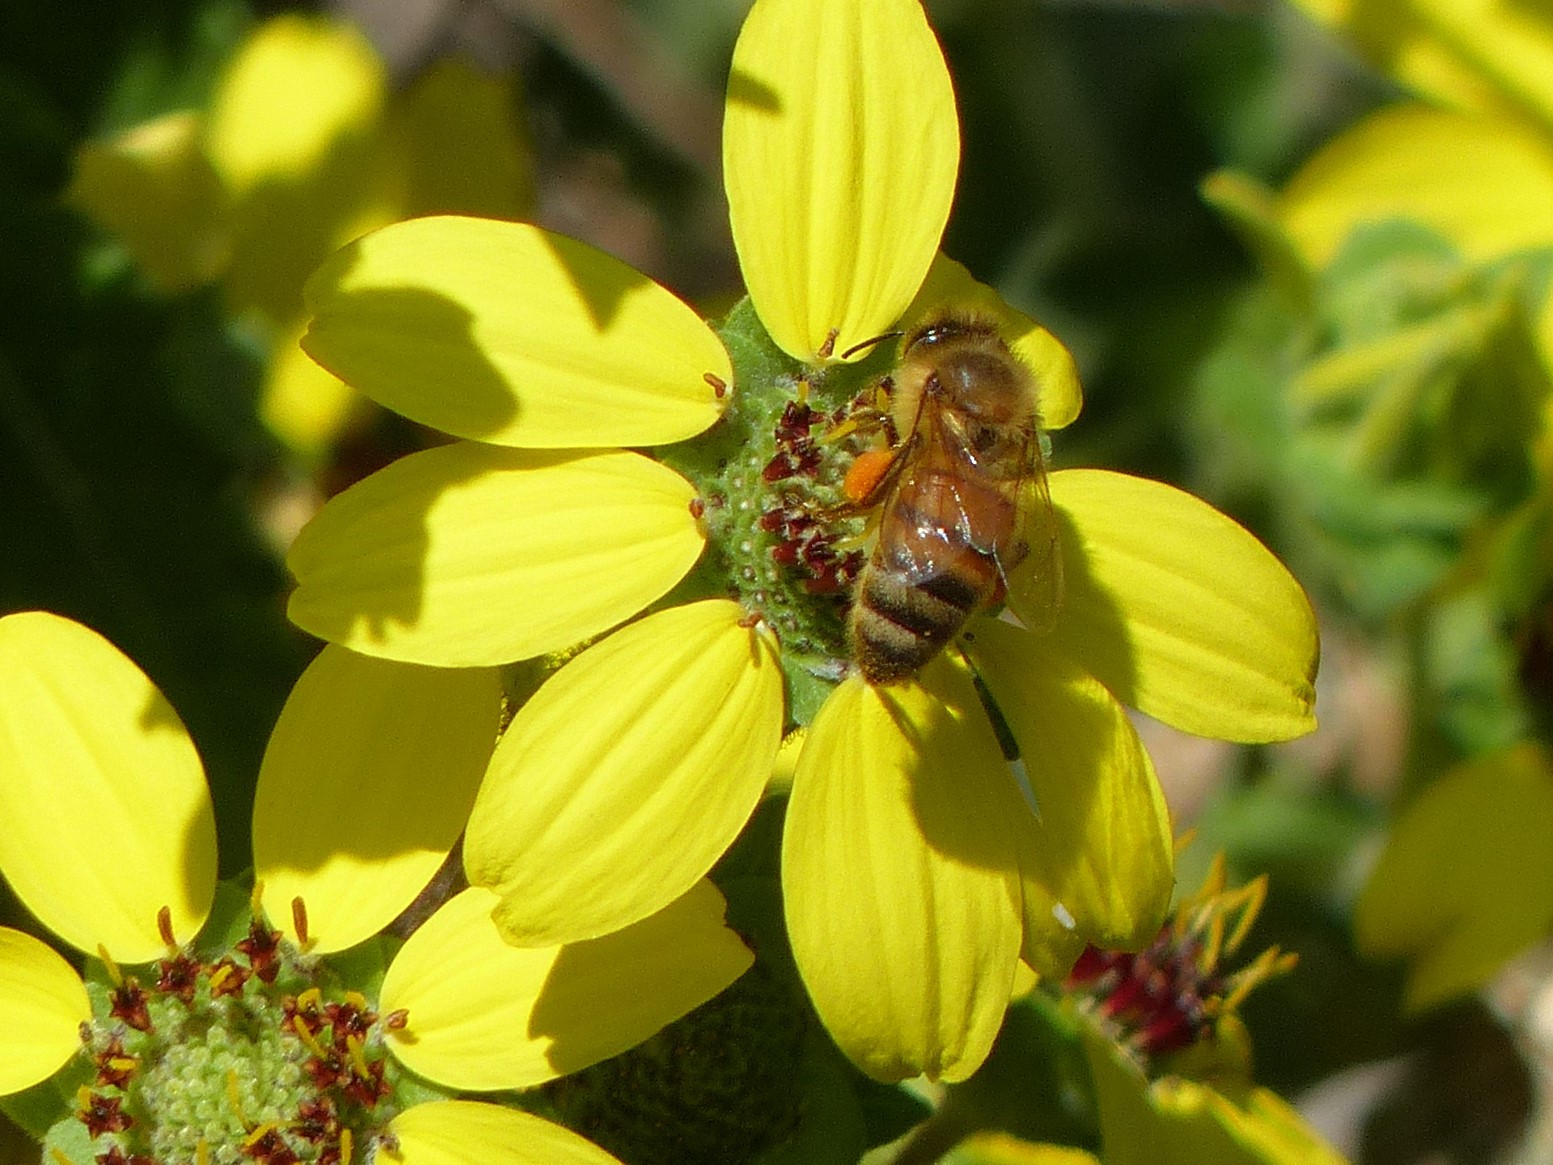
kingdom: Animalia
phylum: Arthropoda
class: Insecta
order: Hymenoptera
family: Apidae
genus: Apis
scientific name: Apis mellifera
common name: Honey bee
